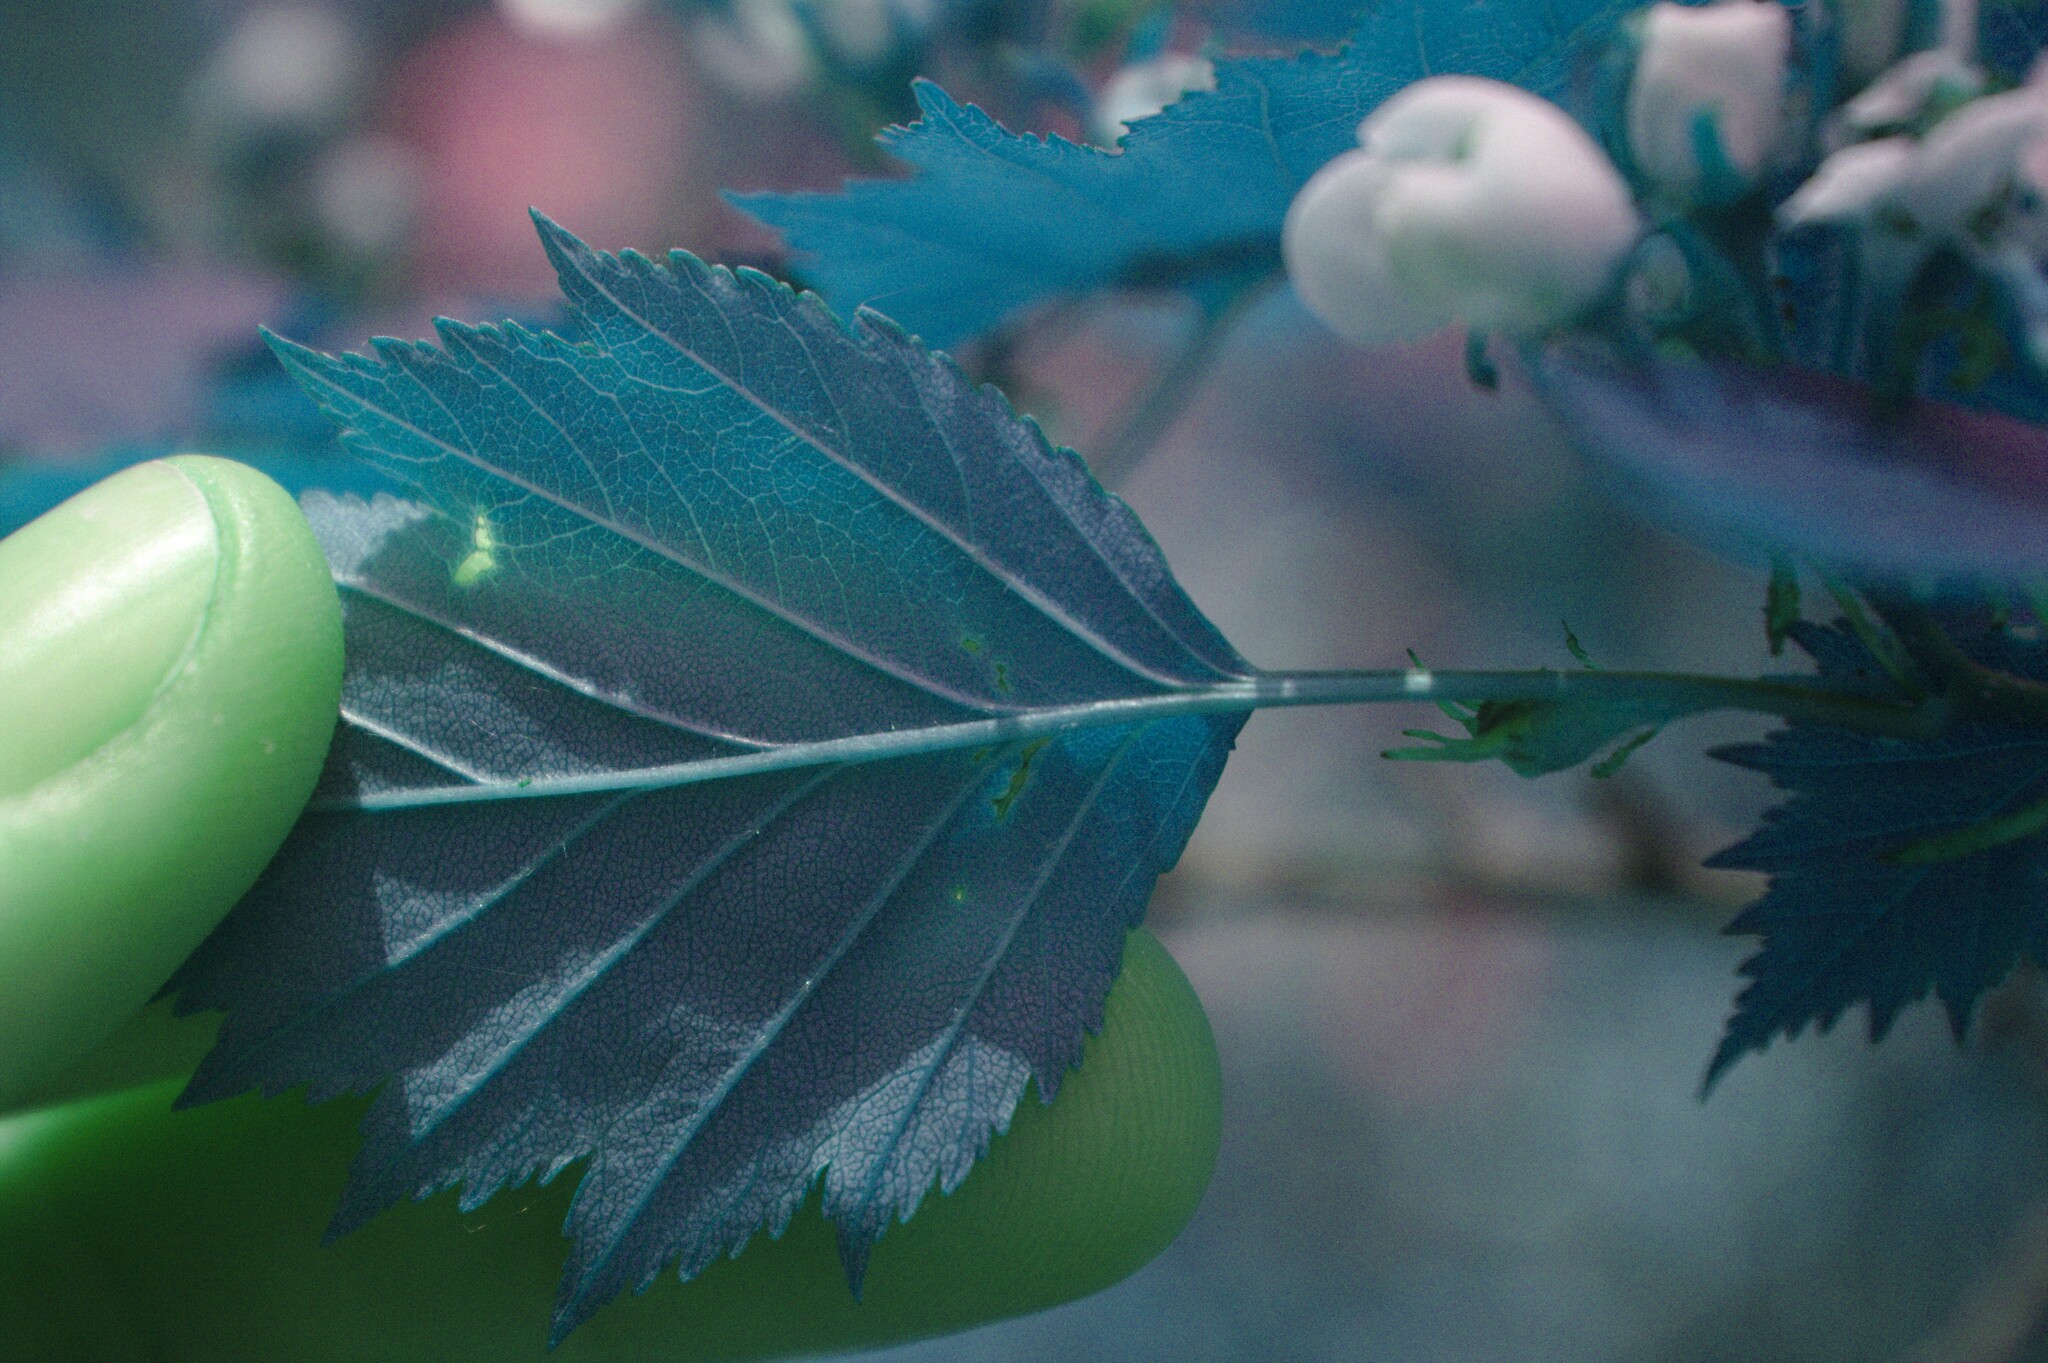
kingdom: Plantae
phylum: Tracheophyta
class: Magnoliopsida
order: Rosales
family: Rosaceae
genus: Crataegus
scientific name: Crataegus flabellata
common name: Bosc's hawthorn
